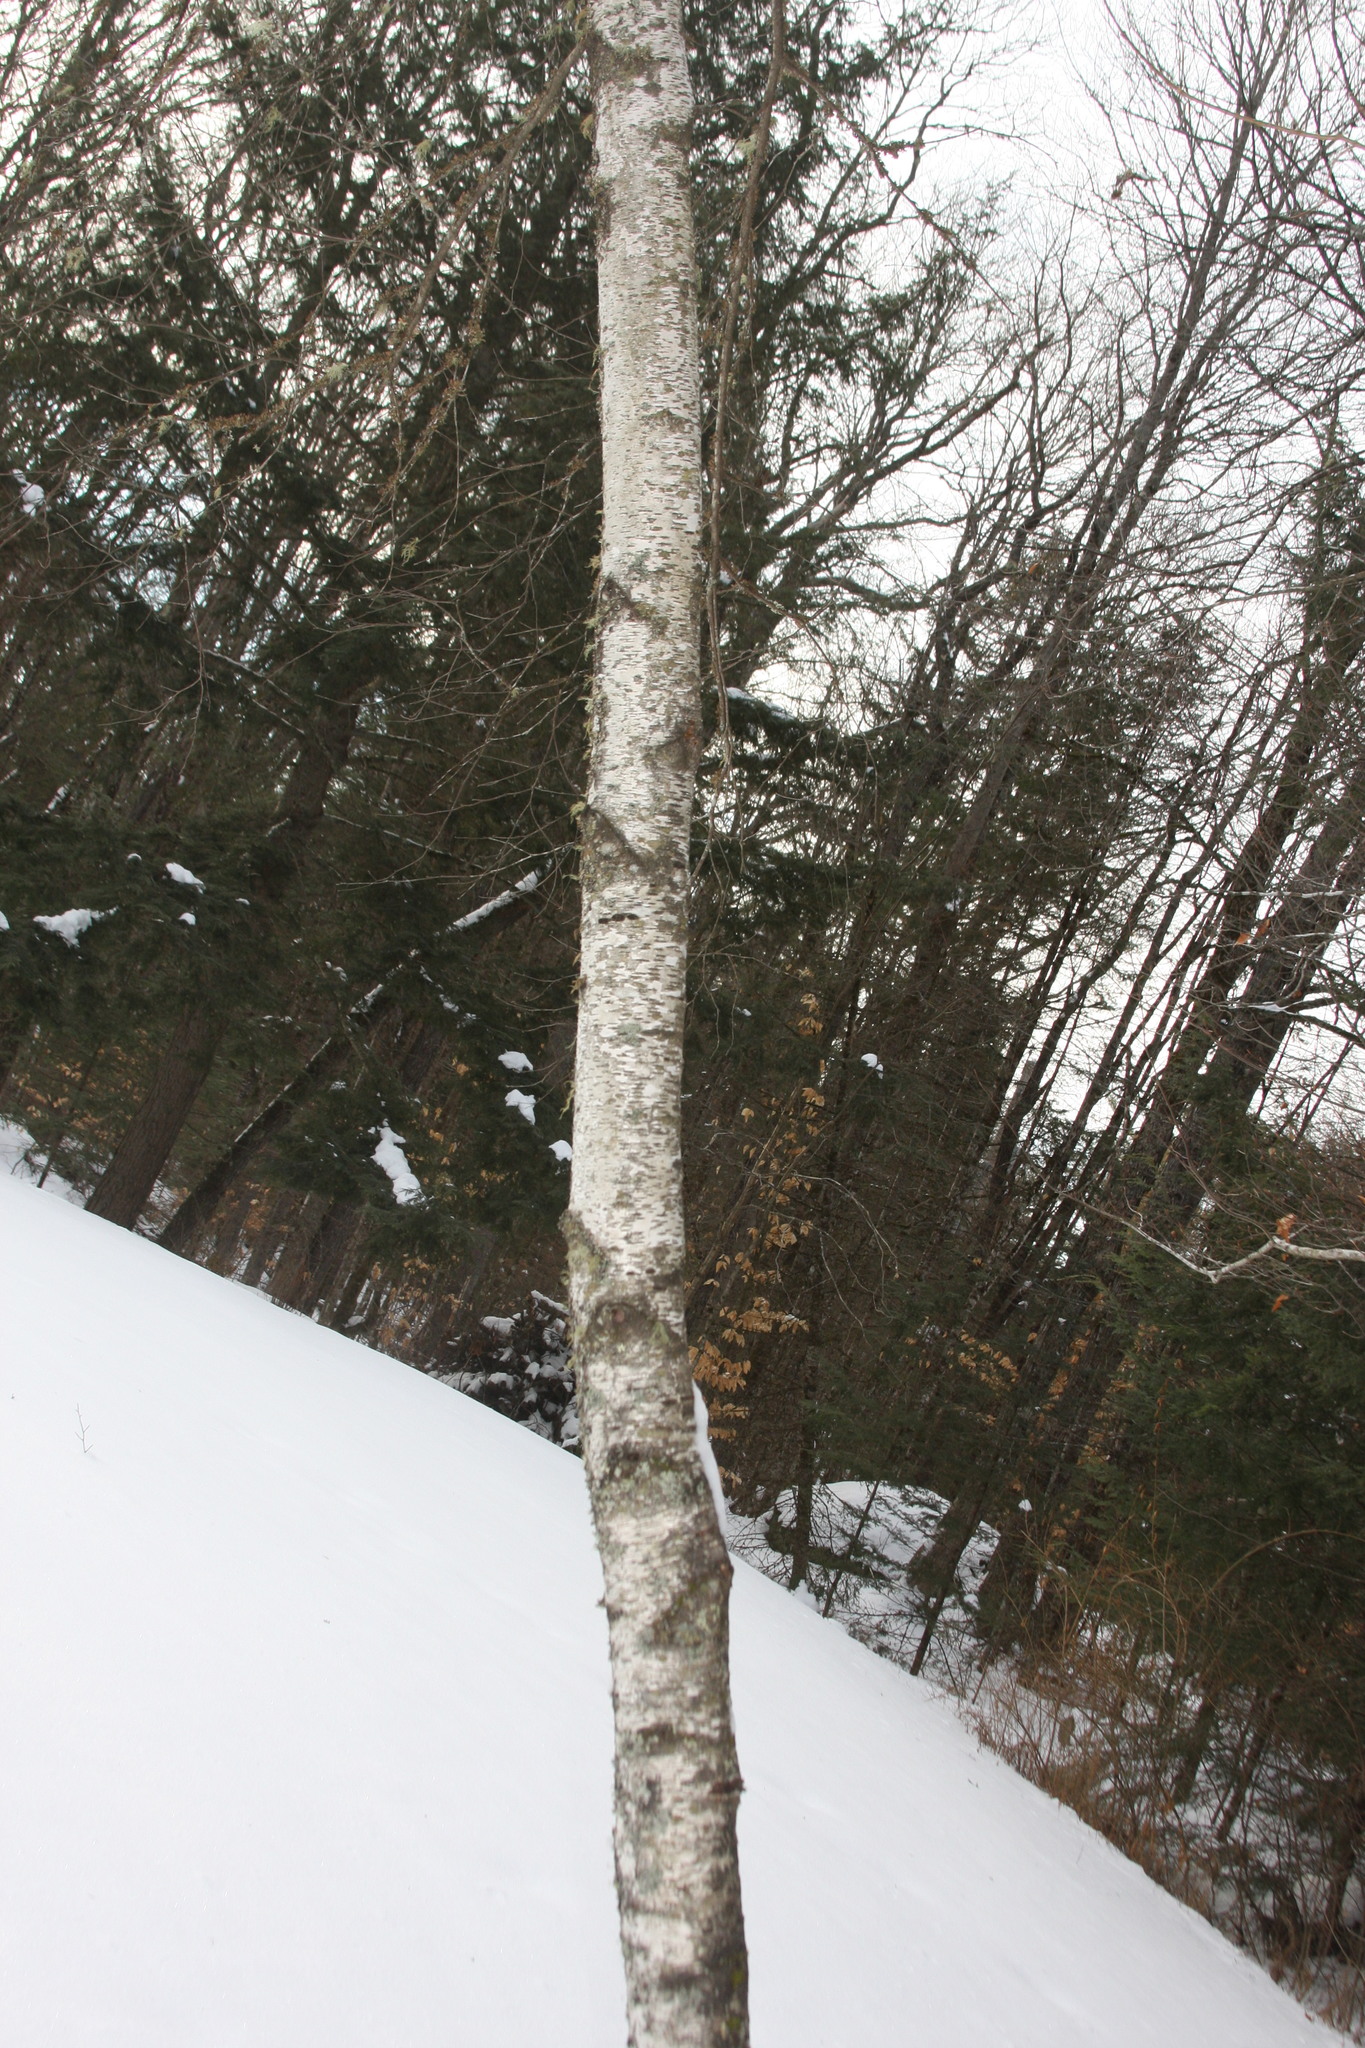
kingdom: Plantae
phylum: Tracheophyta
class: Magnoliopsida
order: Fagales
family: Betulaceae
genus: Betula
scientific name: Betula populifolia
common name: Fire birch
